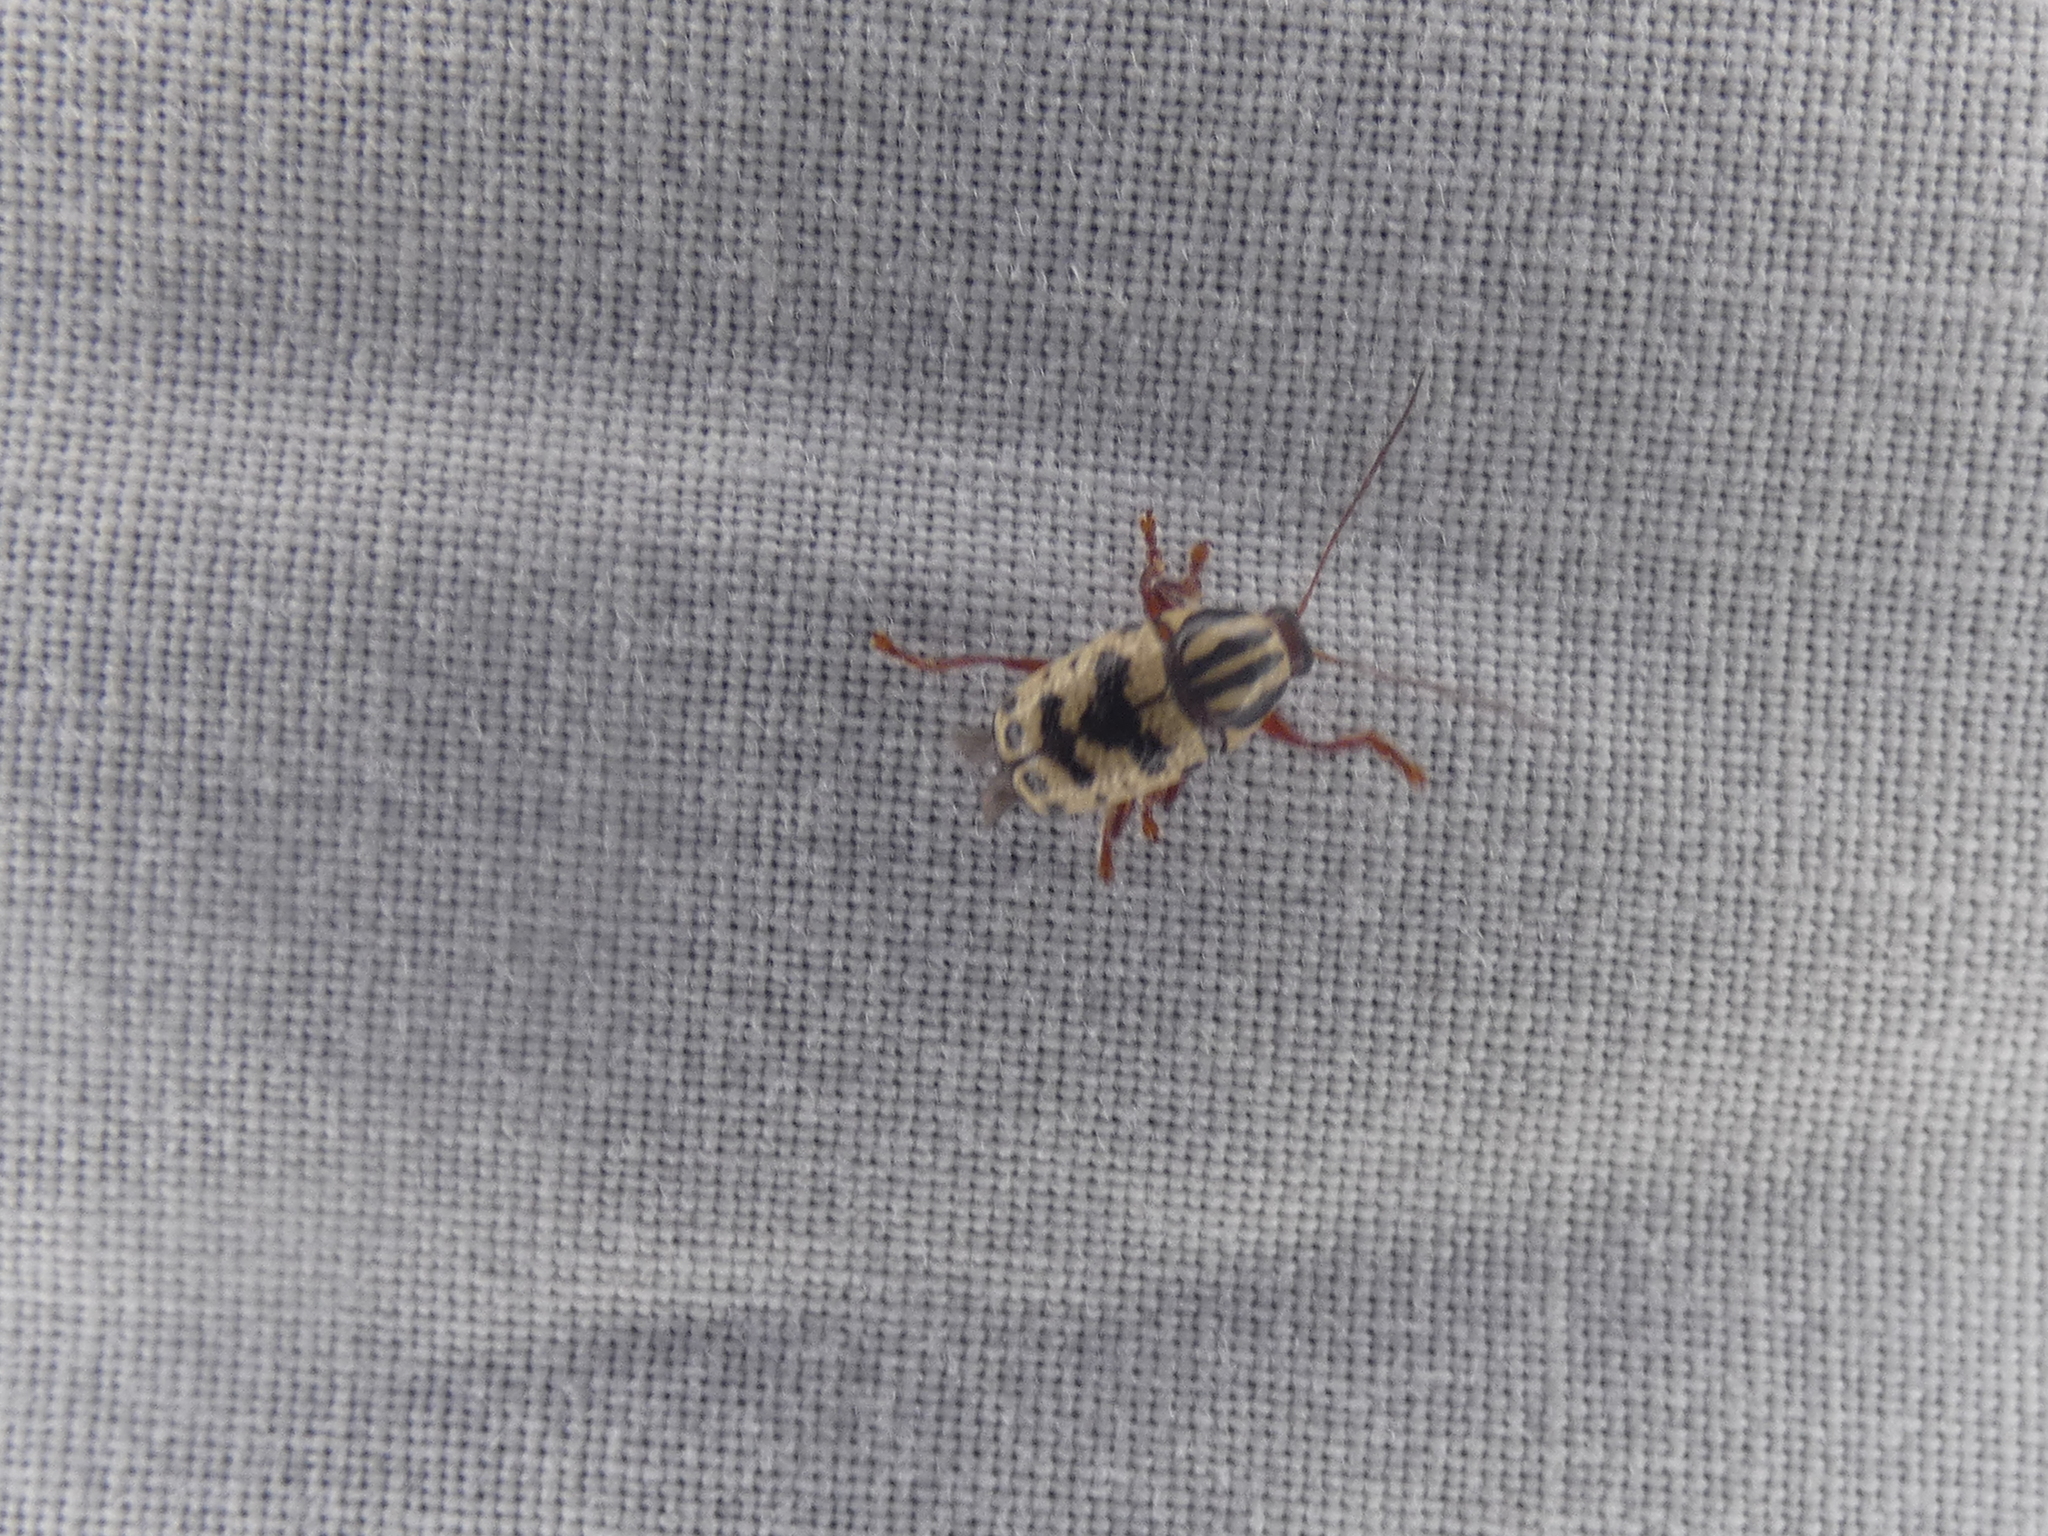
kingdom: Animalia
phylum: Arthropoda
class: Insecta
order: Coleoptera
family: Chrysomelidae
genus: Cryptocephalus
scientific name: Cryptocephalus leucomelas
